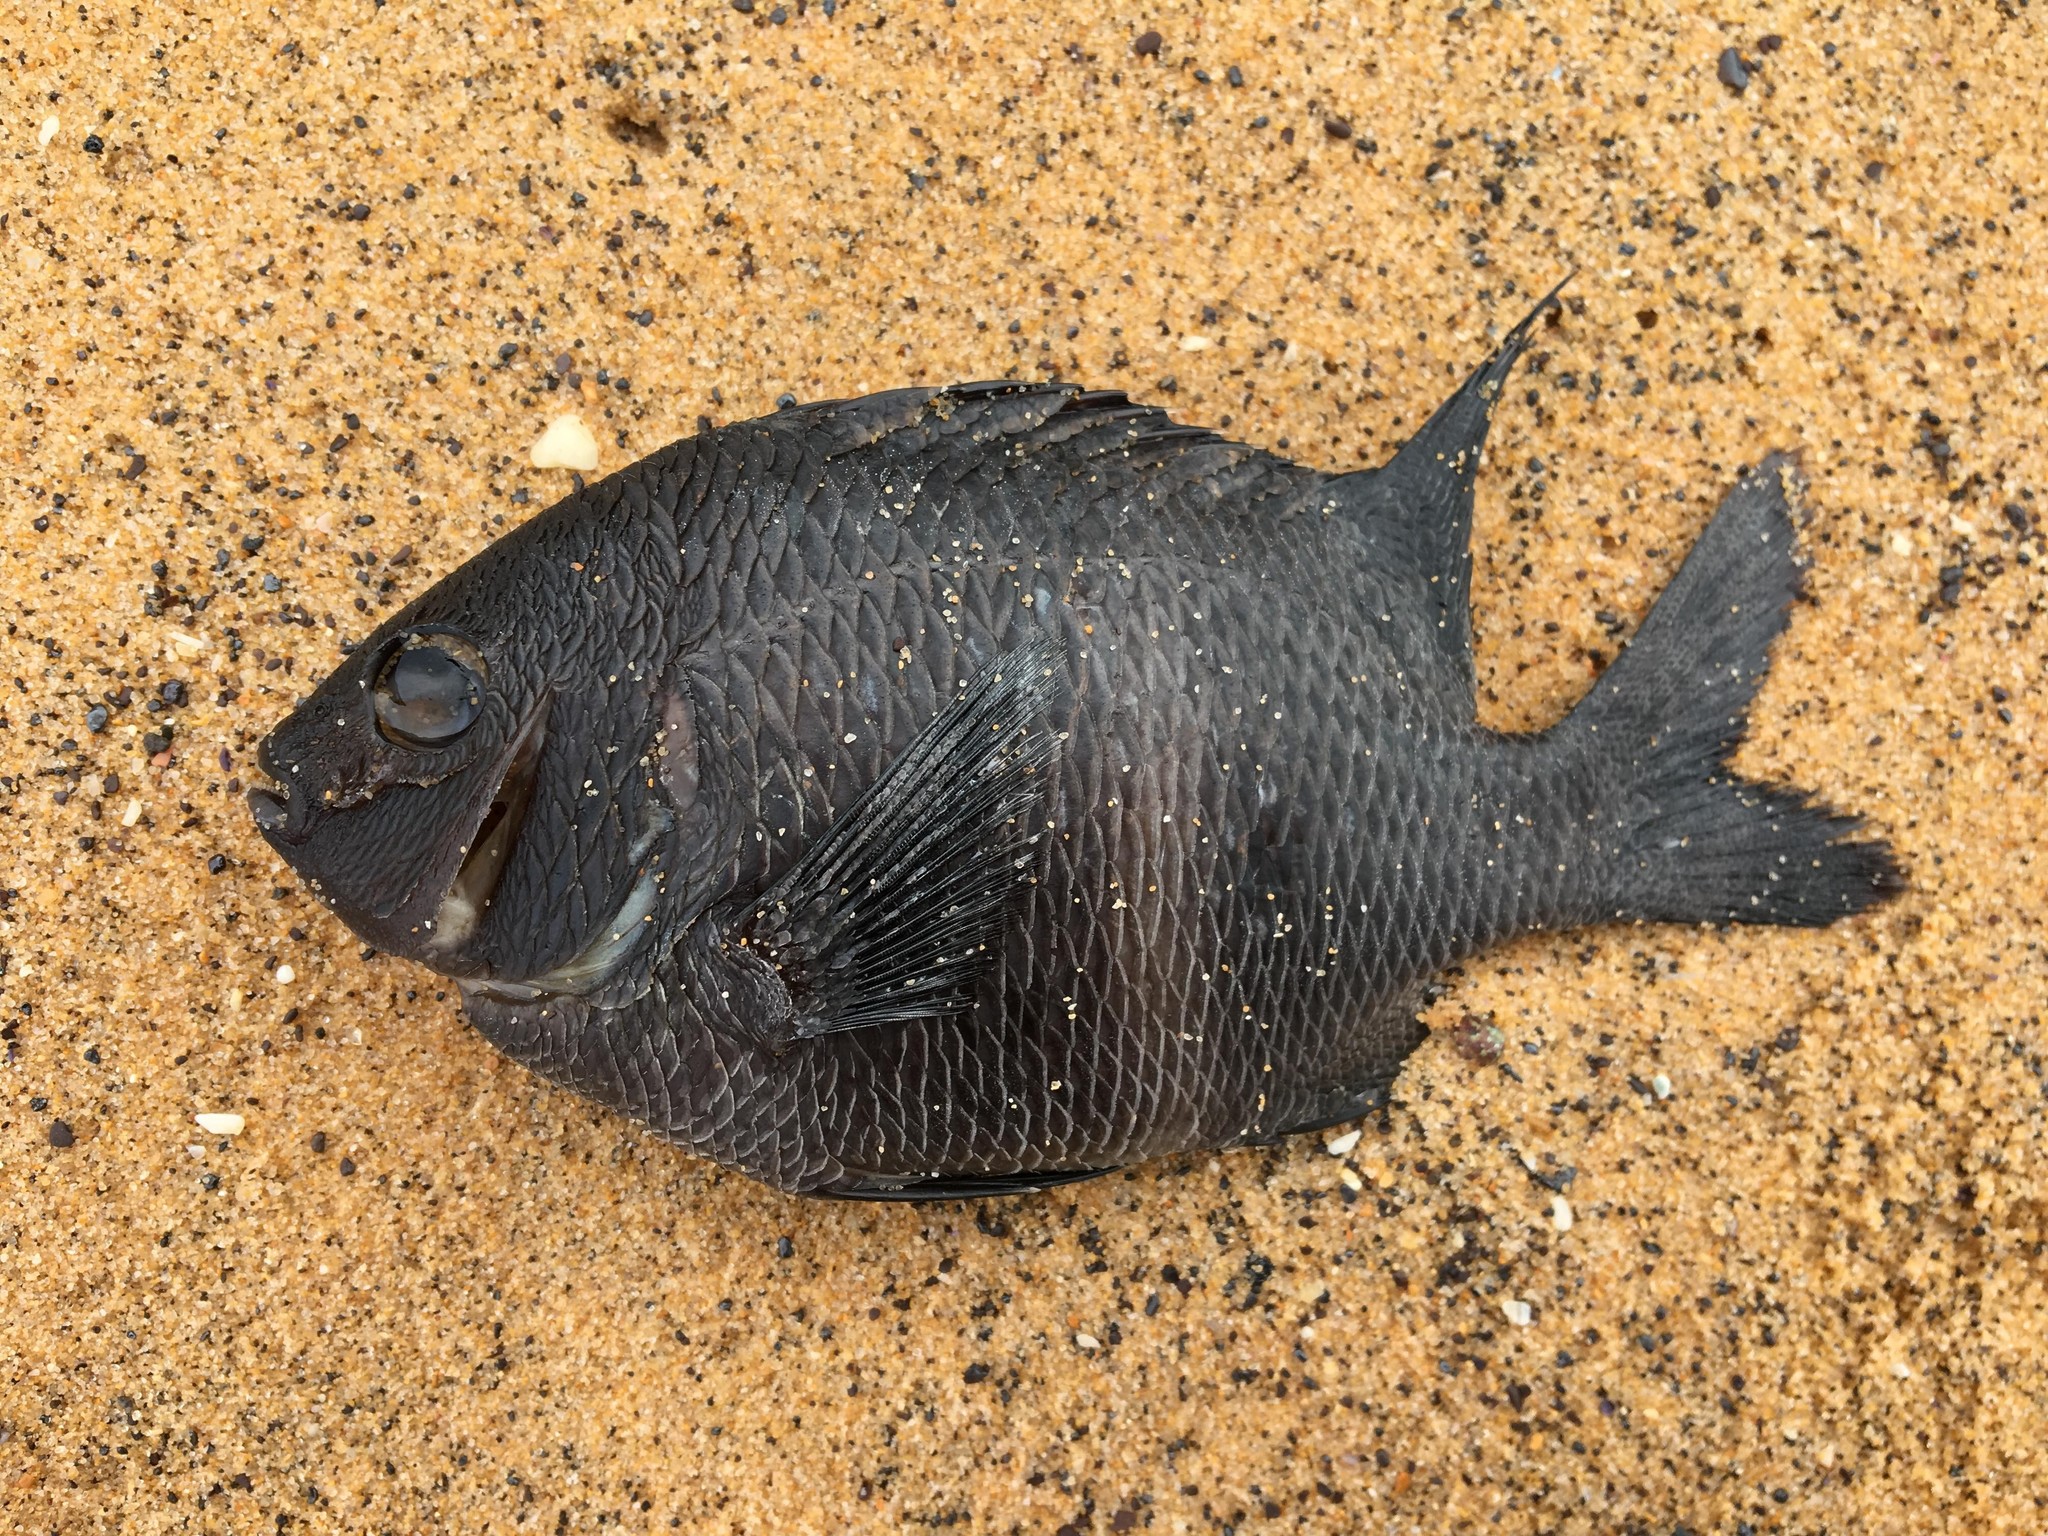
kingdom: Animalia
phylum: Chordata
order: Perciformes
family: Pomacentridae
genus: Parma
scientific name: Parma unifasciata
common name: Girdled parma
